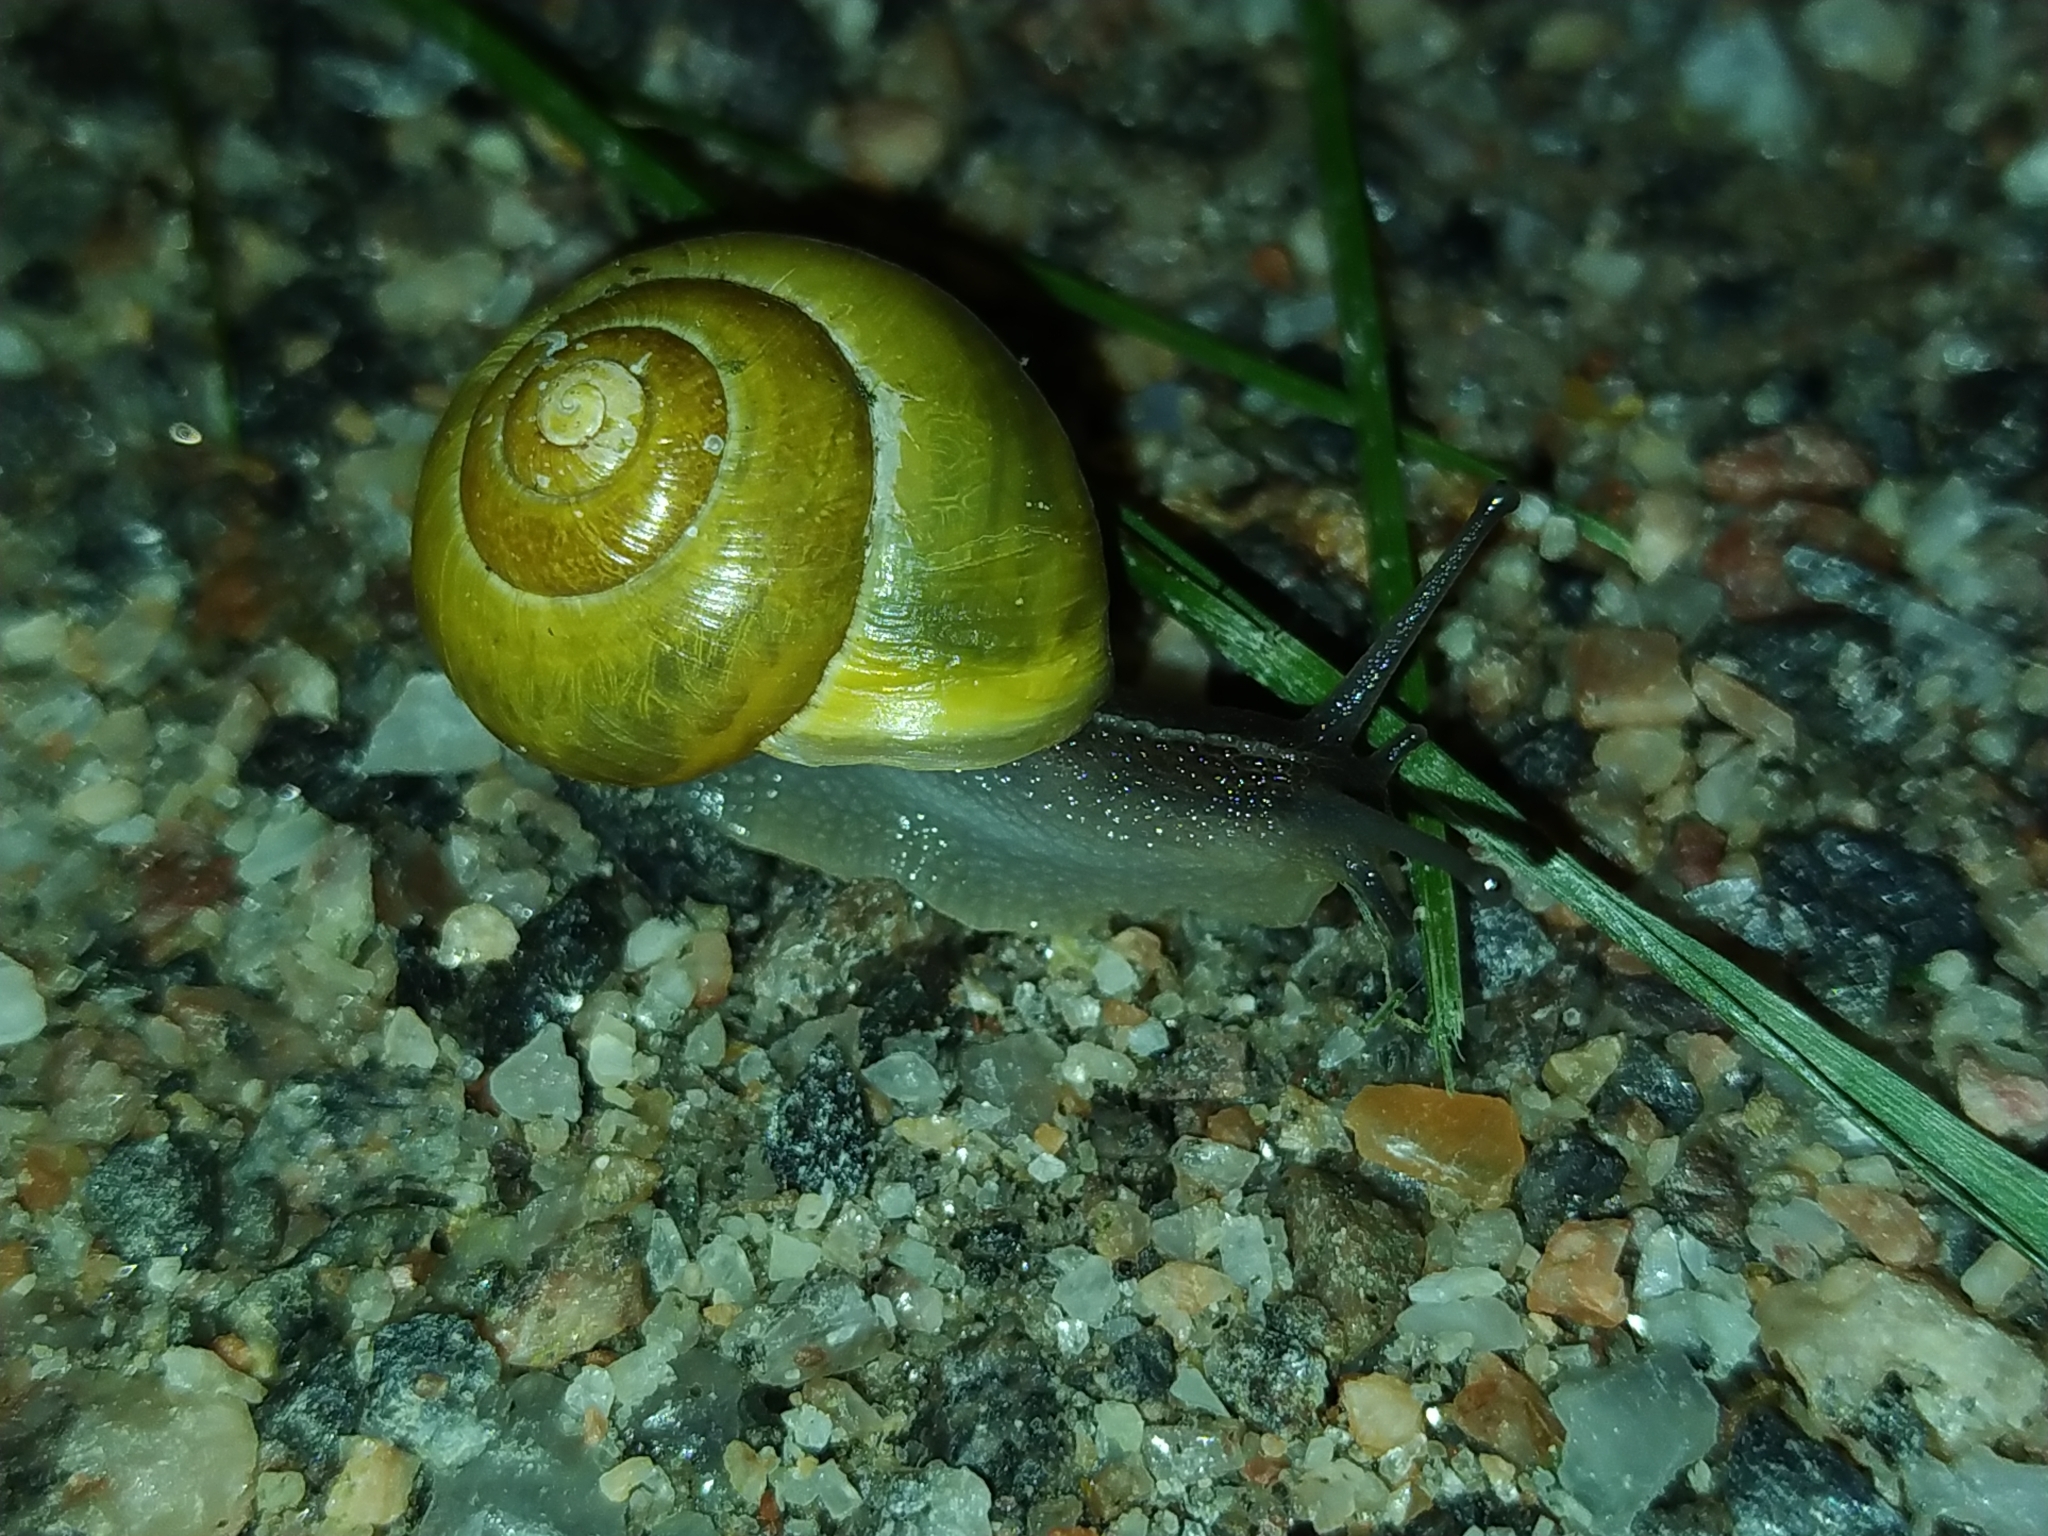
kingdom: Animalia
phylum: Mollusca
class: Gastropoda
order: Stylommatophora
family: Helicidae
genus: Cepaea
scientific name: Cepaea hortensis
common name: White-lip gardensnail
